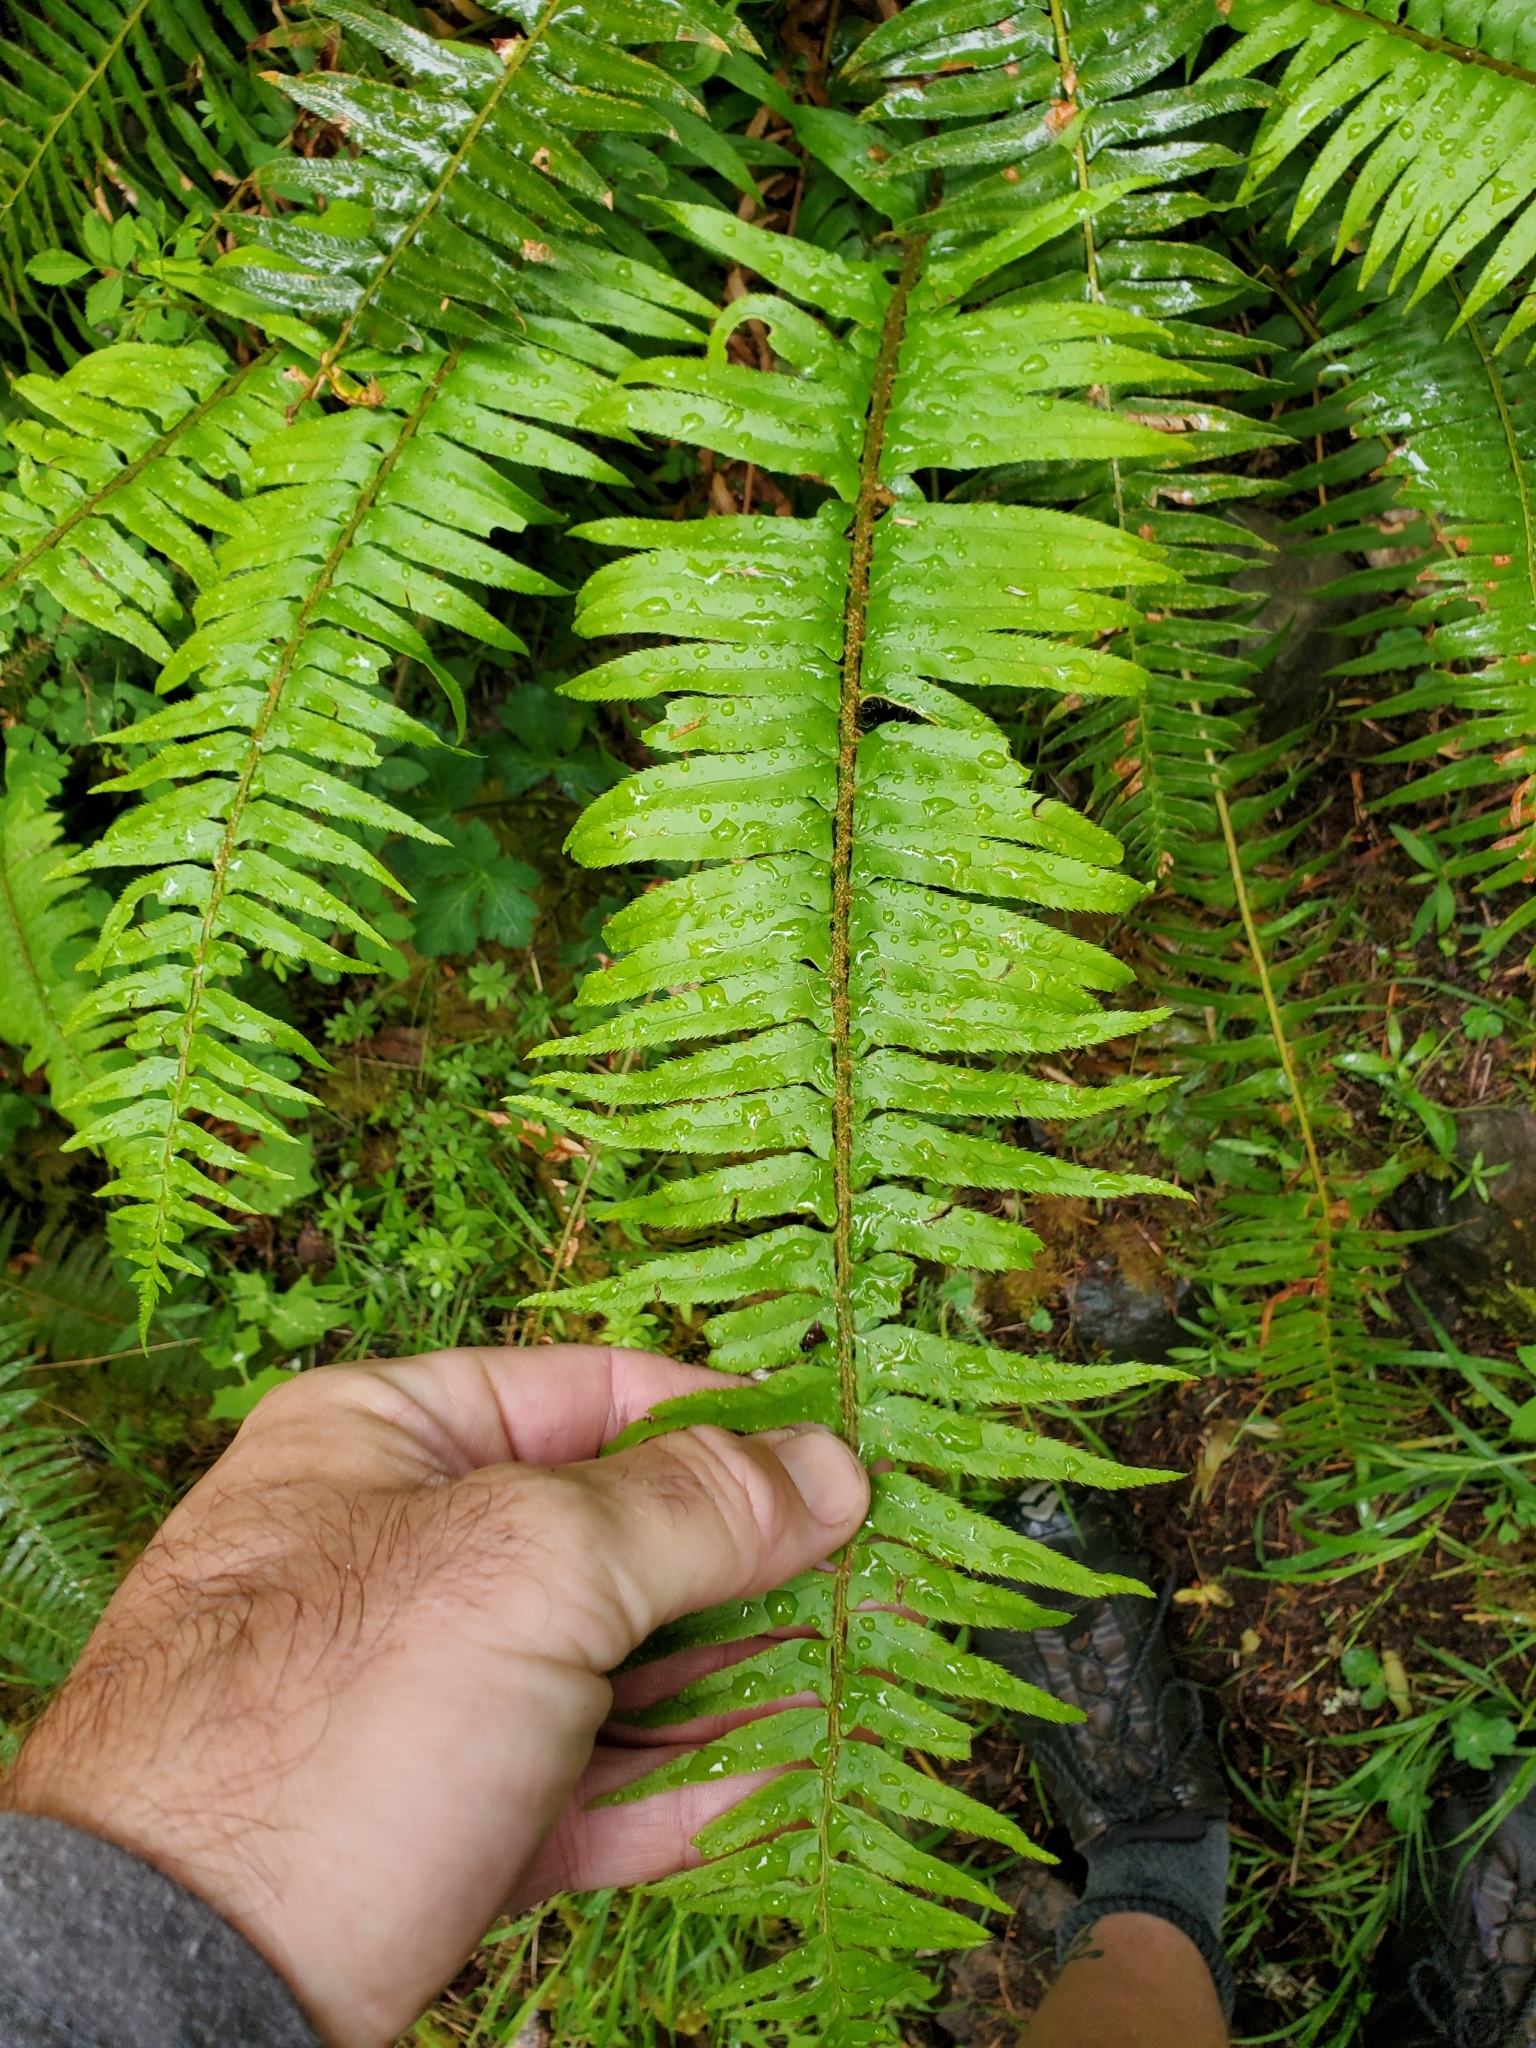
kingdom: Plantae
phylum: Tracheophyta
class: Polypodiopsida
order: Polypodiales
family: Dryopteridaceae
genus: Polystichum
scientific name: Polystichum munitum
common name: Western sword-fern
